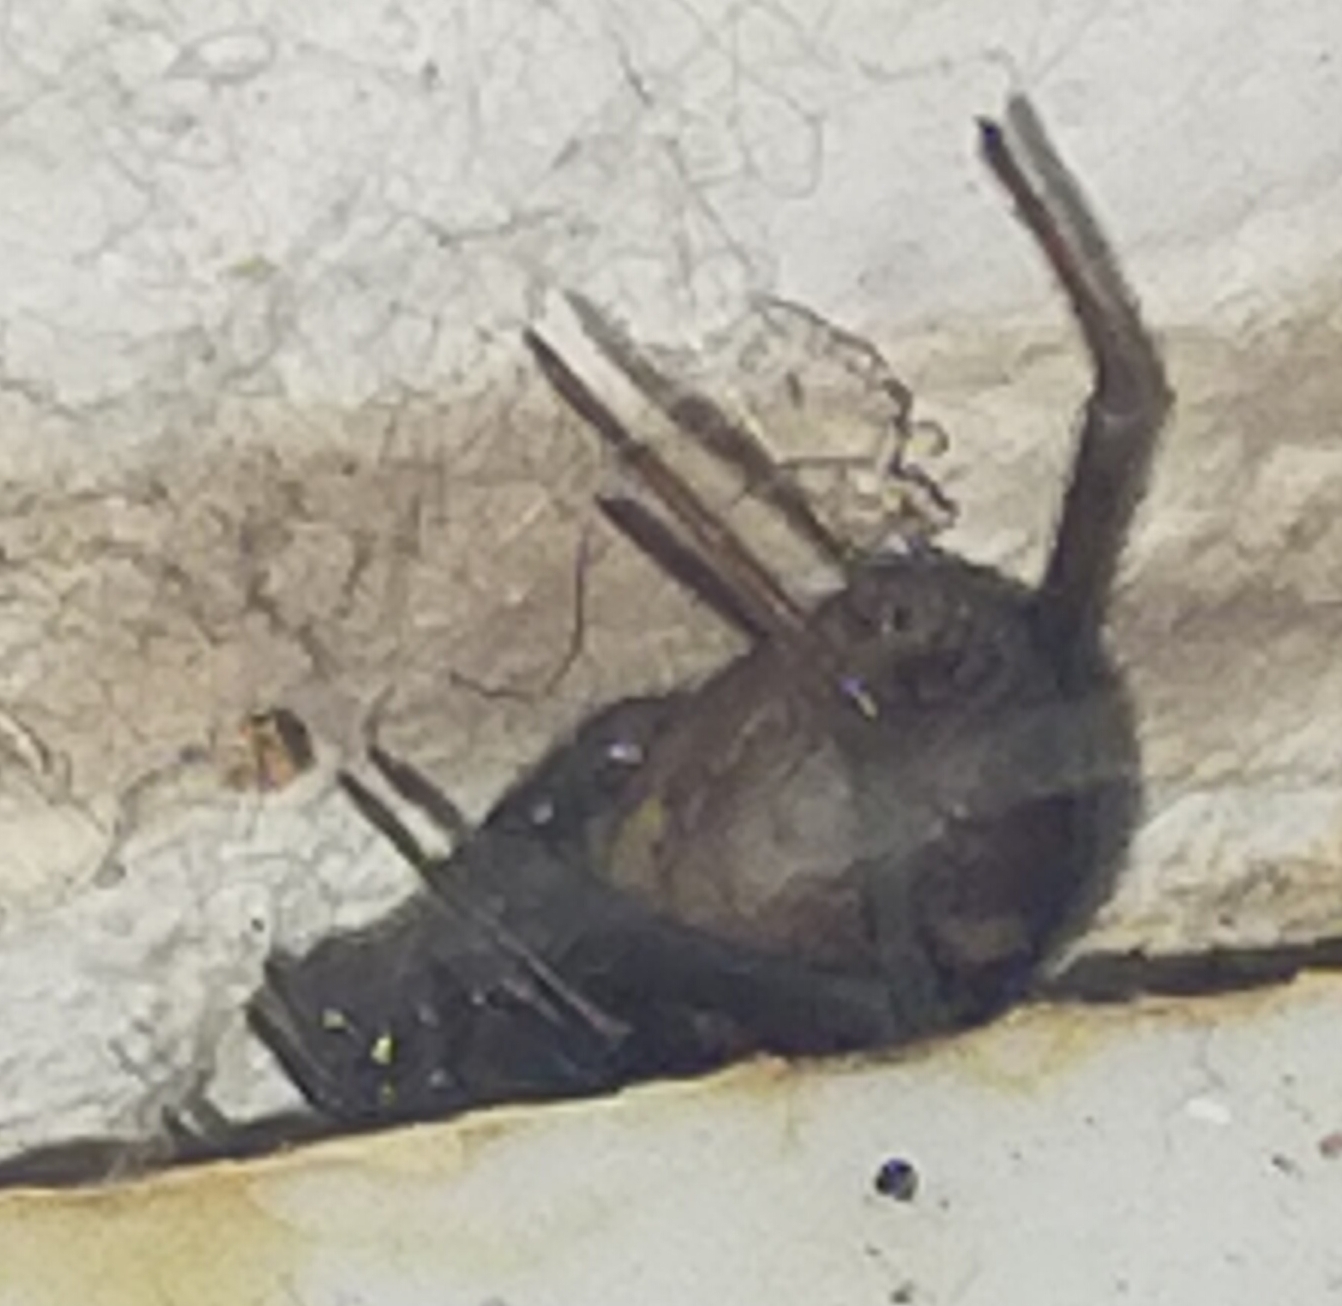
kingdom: Animalia
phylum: Arthropoda
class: Arachnida
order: Araneae
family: Theridiidae
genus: Steatoda
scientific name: Steatoda
